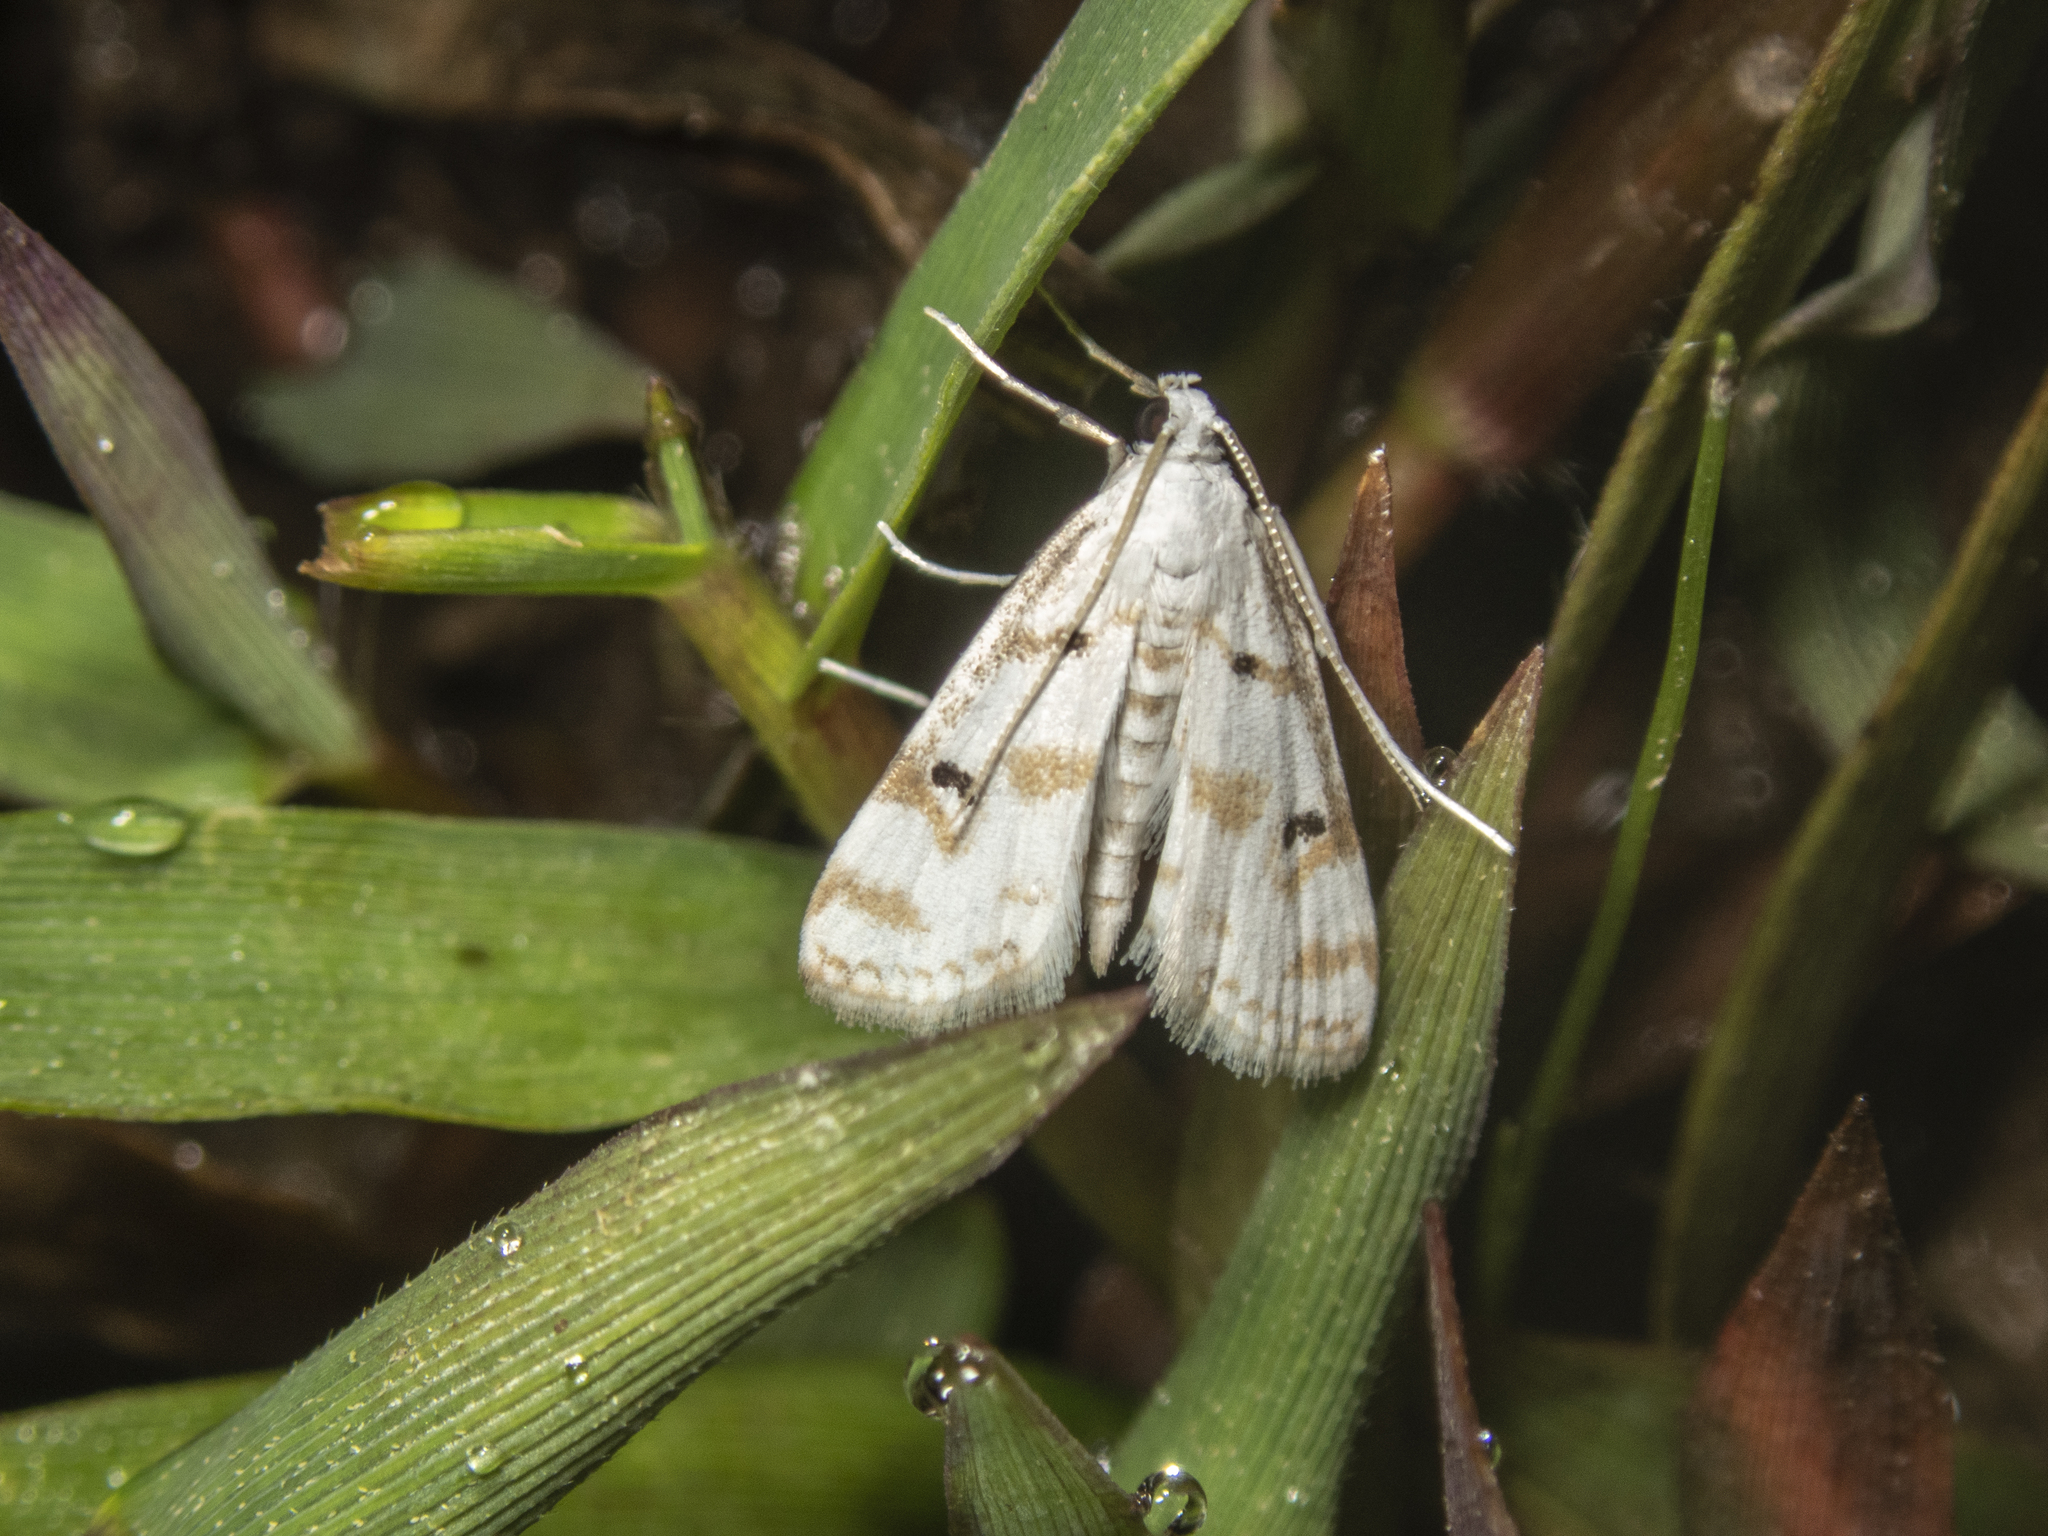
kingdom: Animalia
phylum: Arthropoda
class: Insecta
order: Lepidoptera
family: Crambidae
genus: Parapoynx
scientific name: Parapoynx stagnalis
